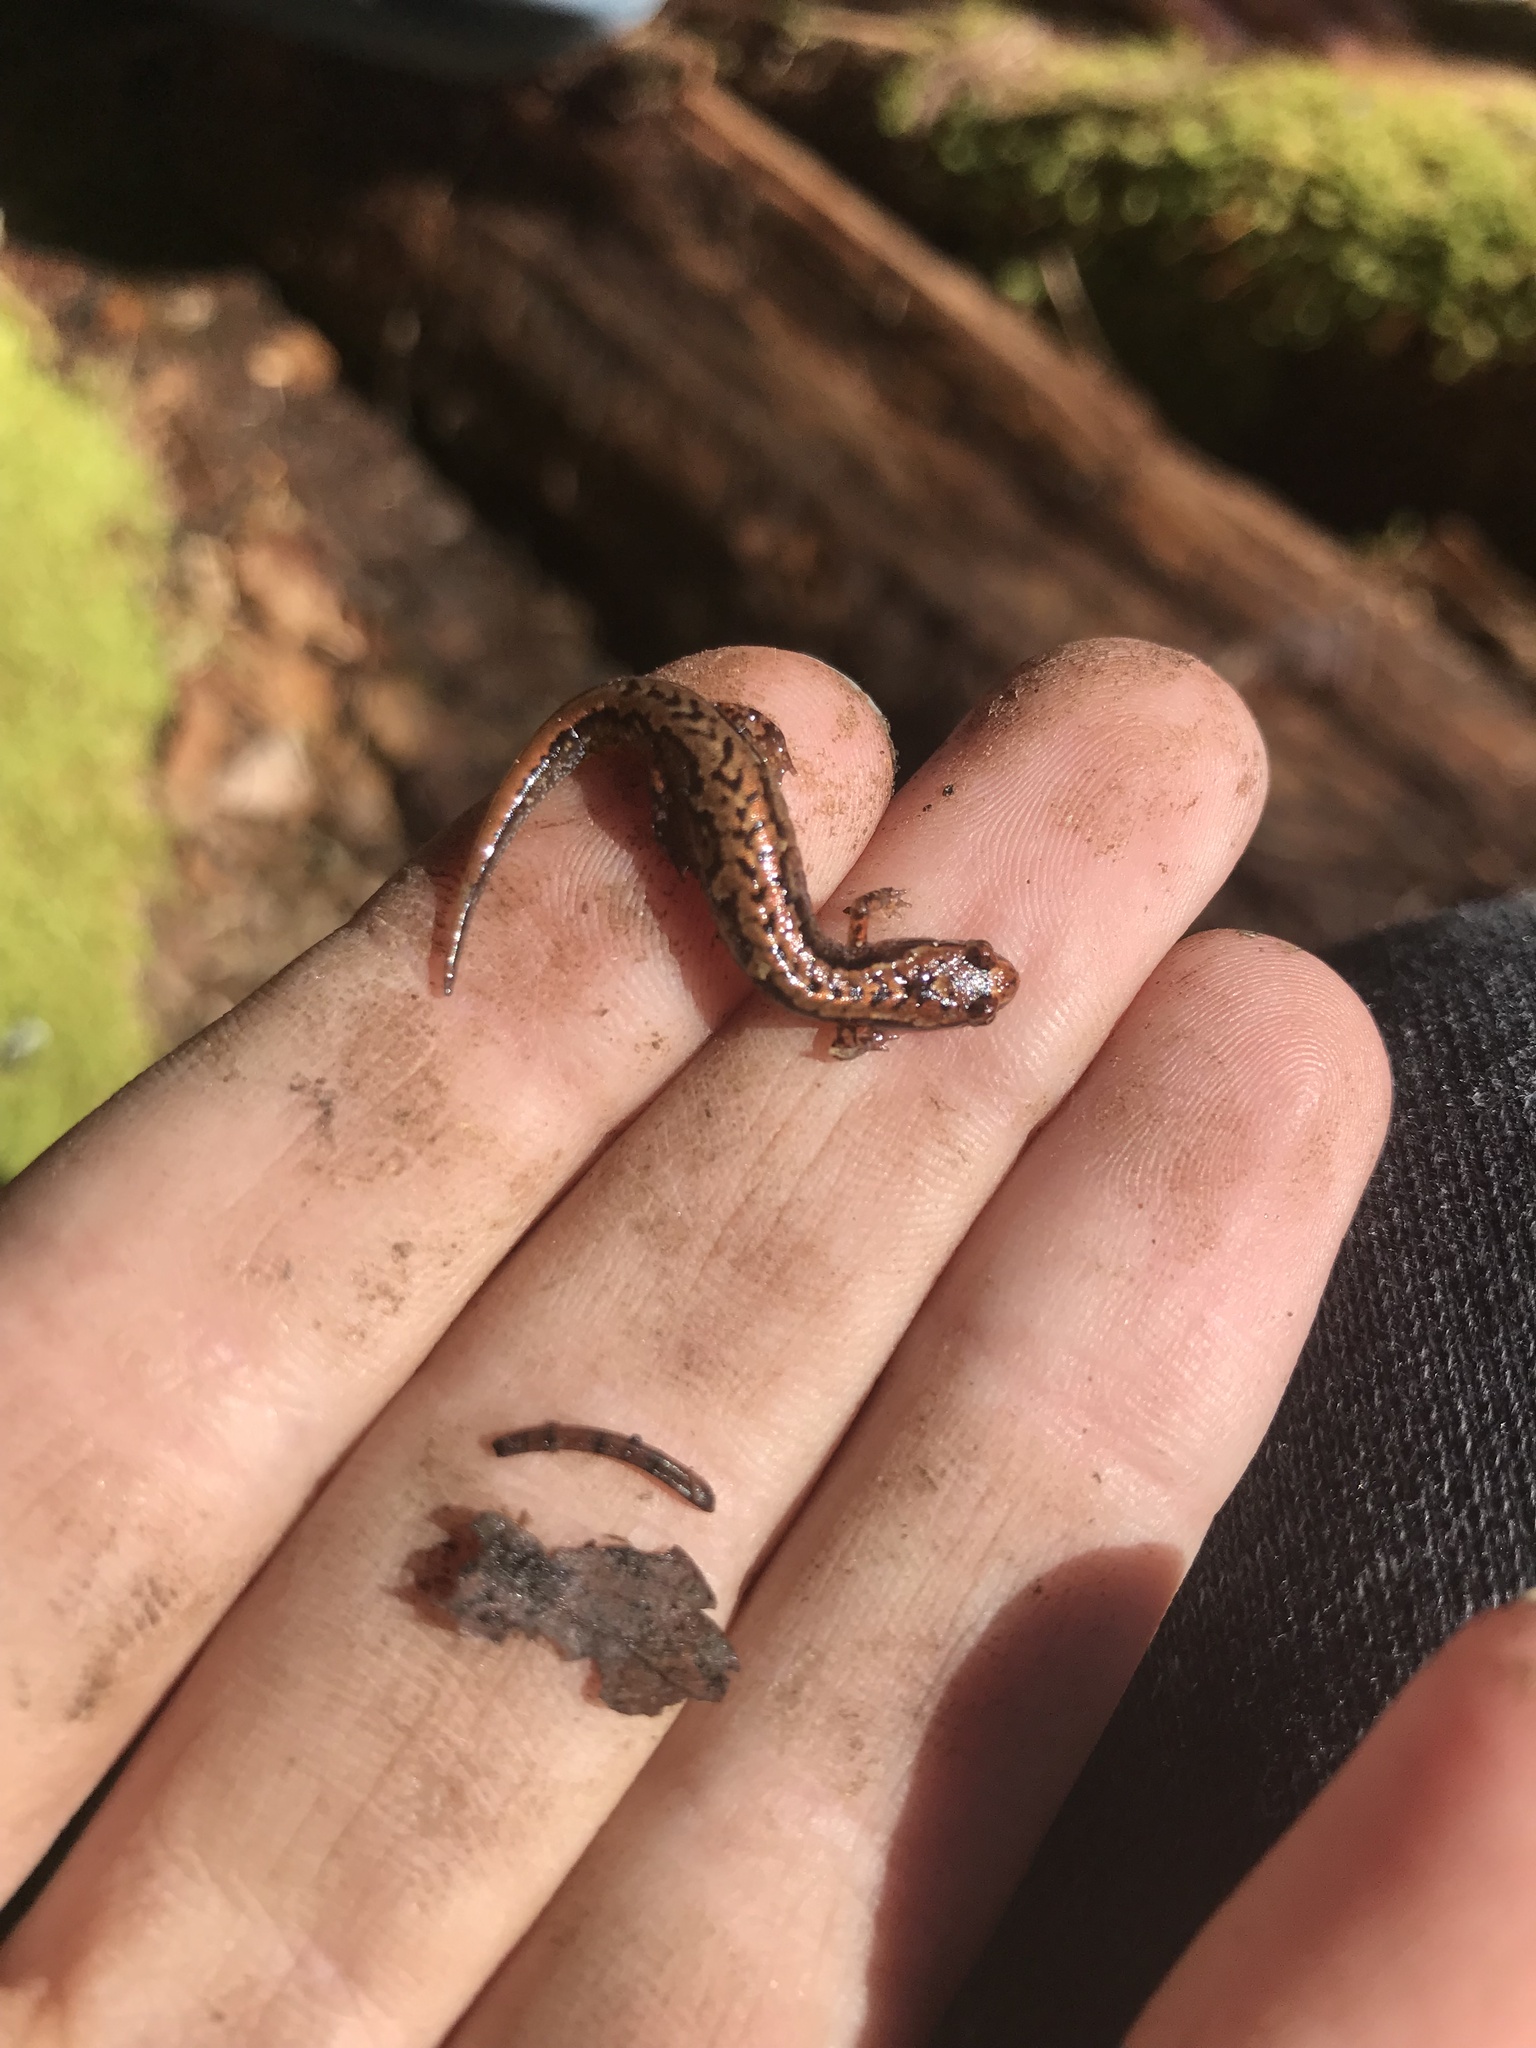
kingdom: Animalia
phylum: Chordata
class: Amphibia
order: Caudata
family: Plethodontidae
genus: Desmognathus
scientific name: Desmognathus wrighti
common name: Pygmy salamander
